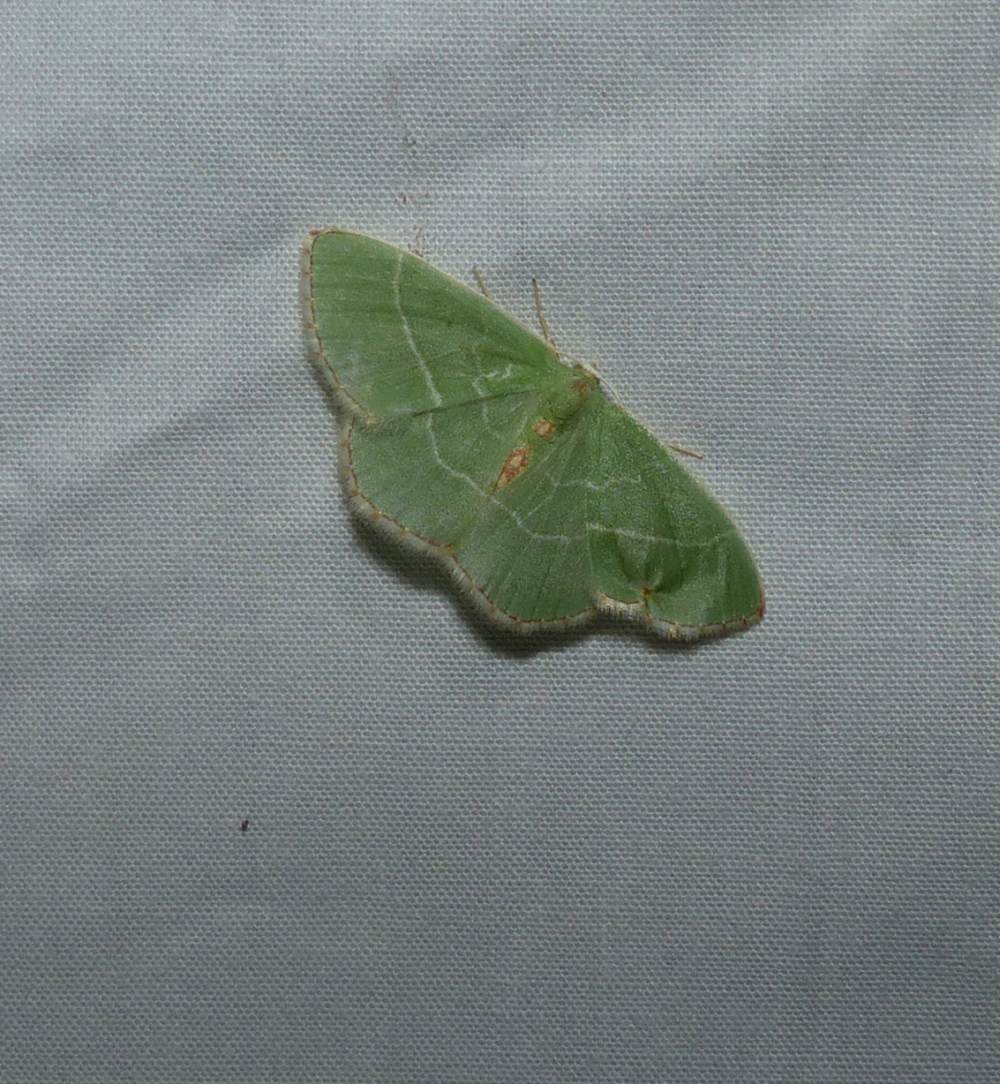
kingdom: Animalia
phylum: Arthropoda
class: Insecta
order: Lepidoptera
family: Geometridae
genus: Nemoria
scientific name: Nemoria bistriaria
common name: Red-fringed emerald
